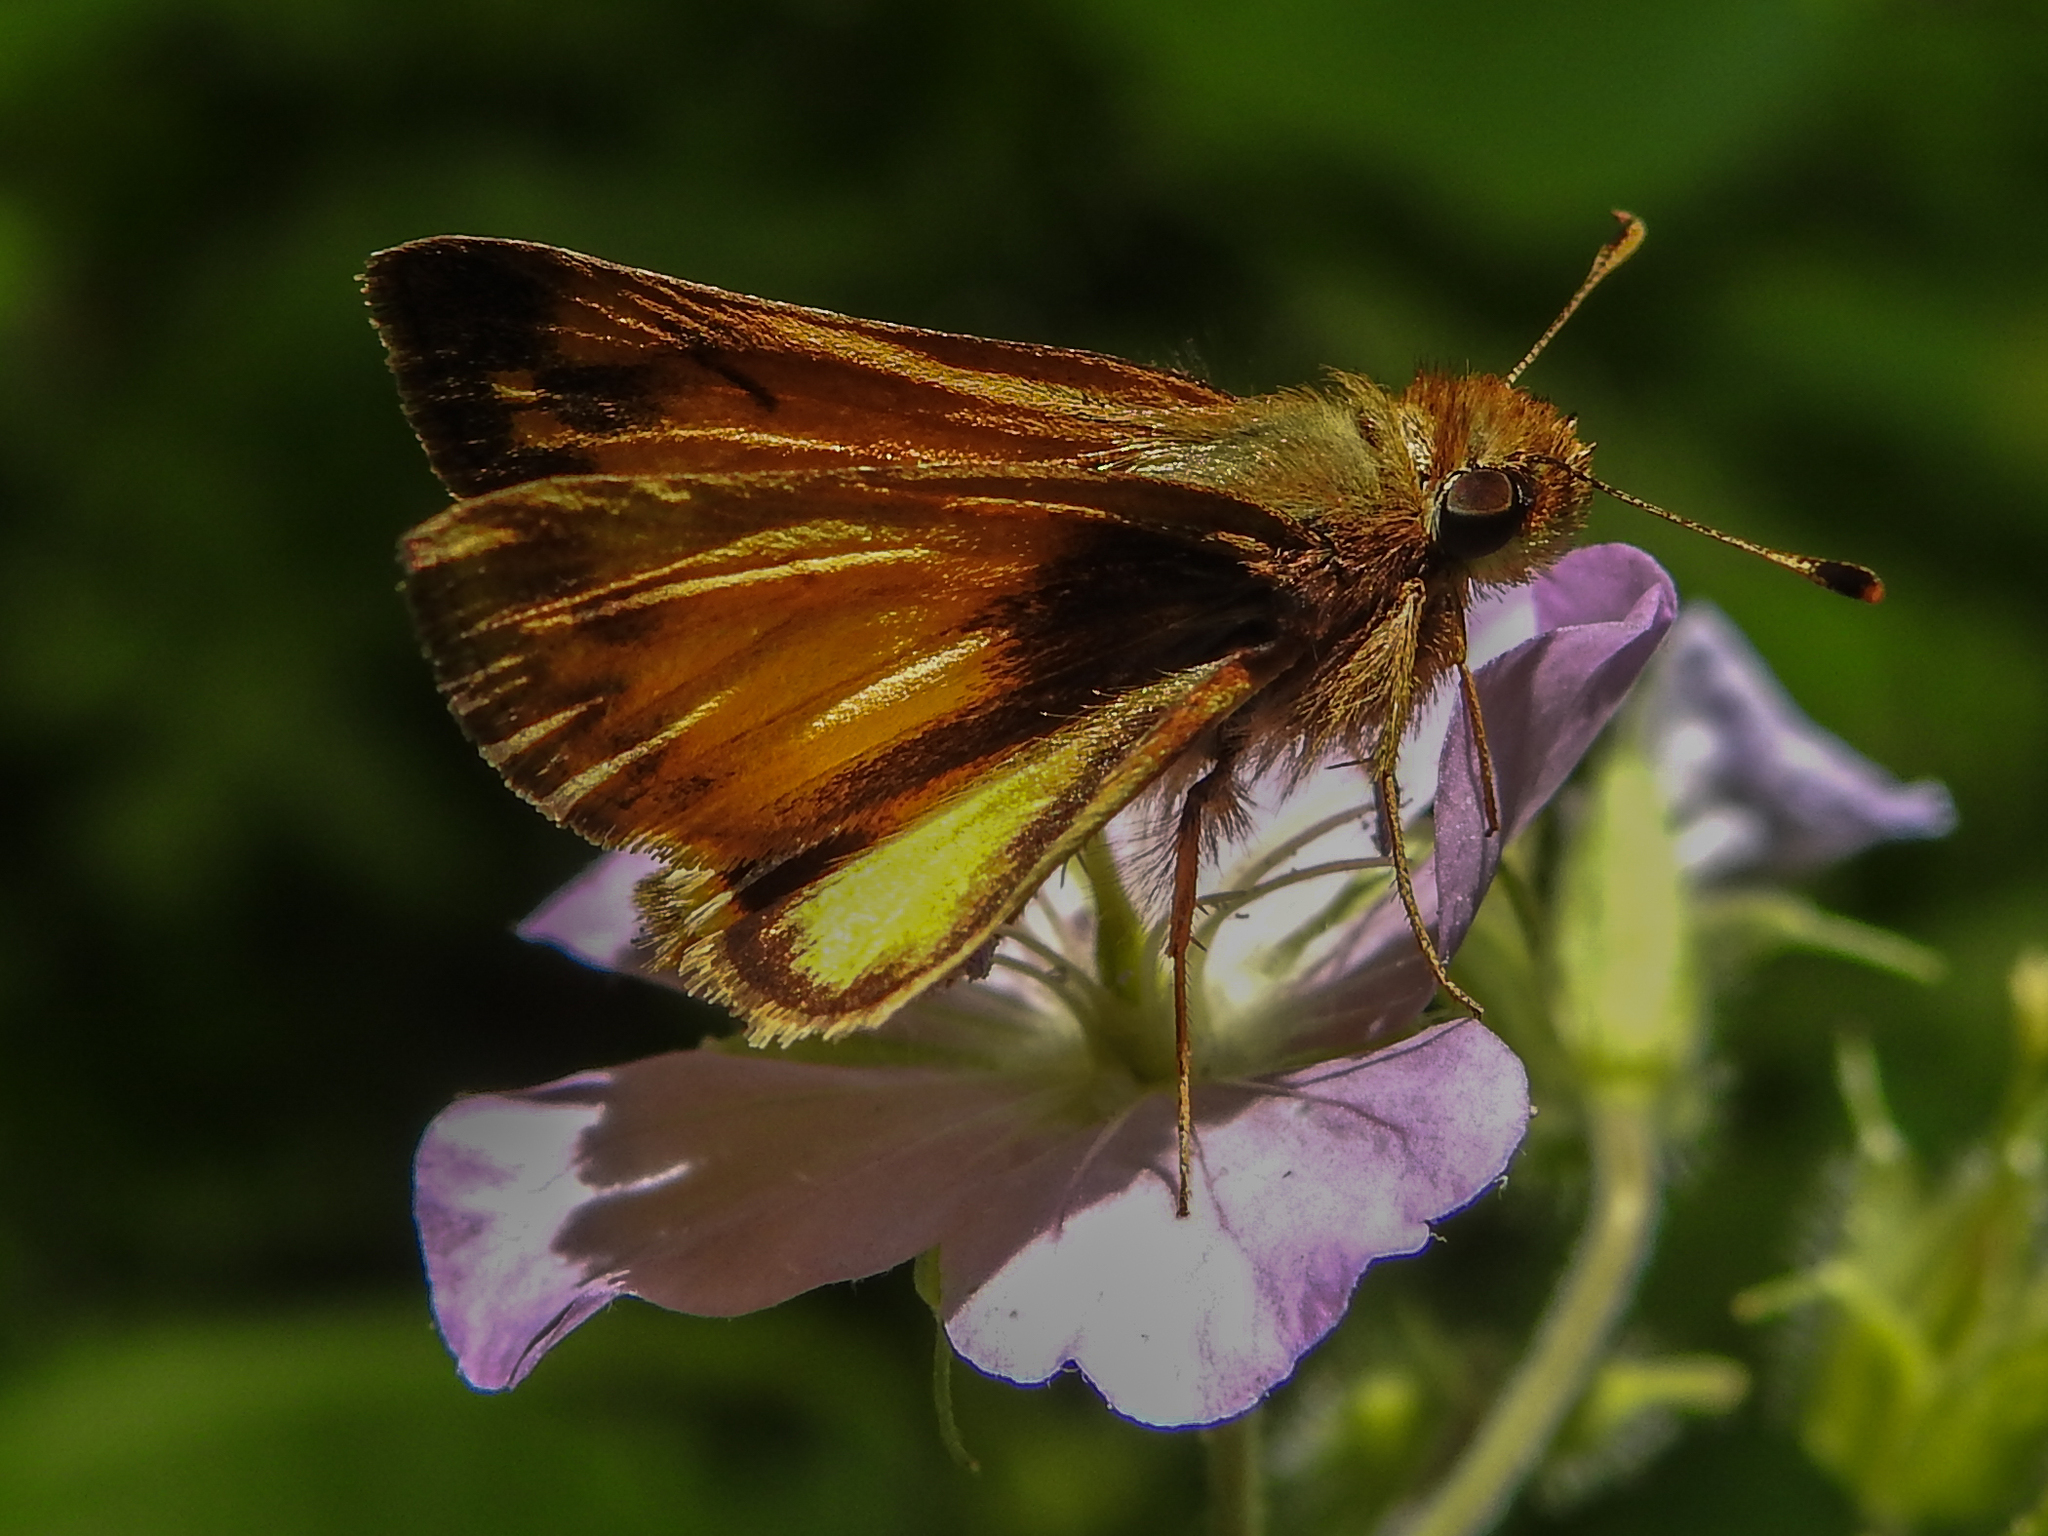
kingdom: Animalia
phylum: Arthropoda
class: Insecta
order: Lepidoptera
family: Hesperiidae
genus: Lon
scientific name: Lon zabulon
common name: Zabulon skipper
